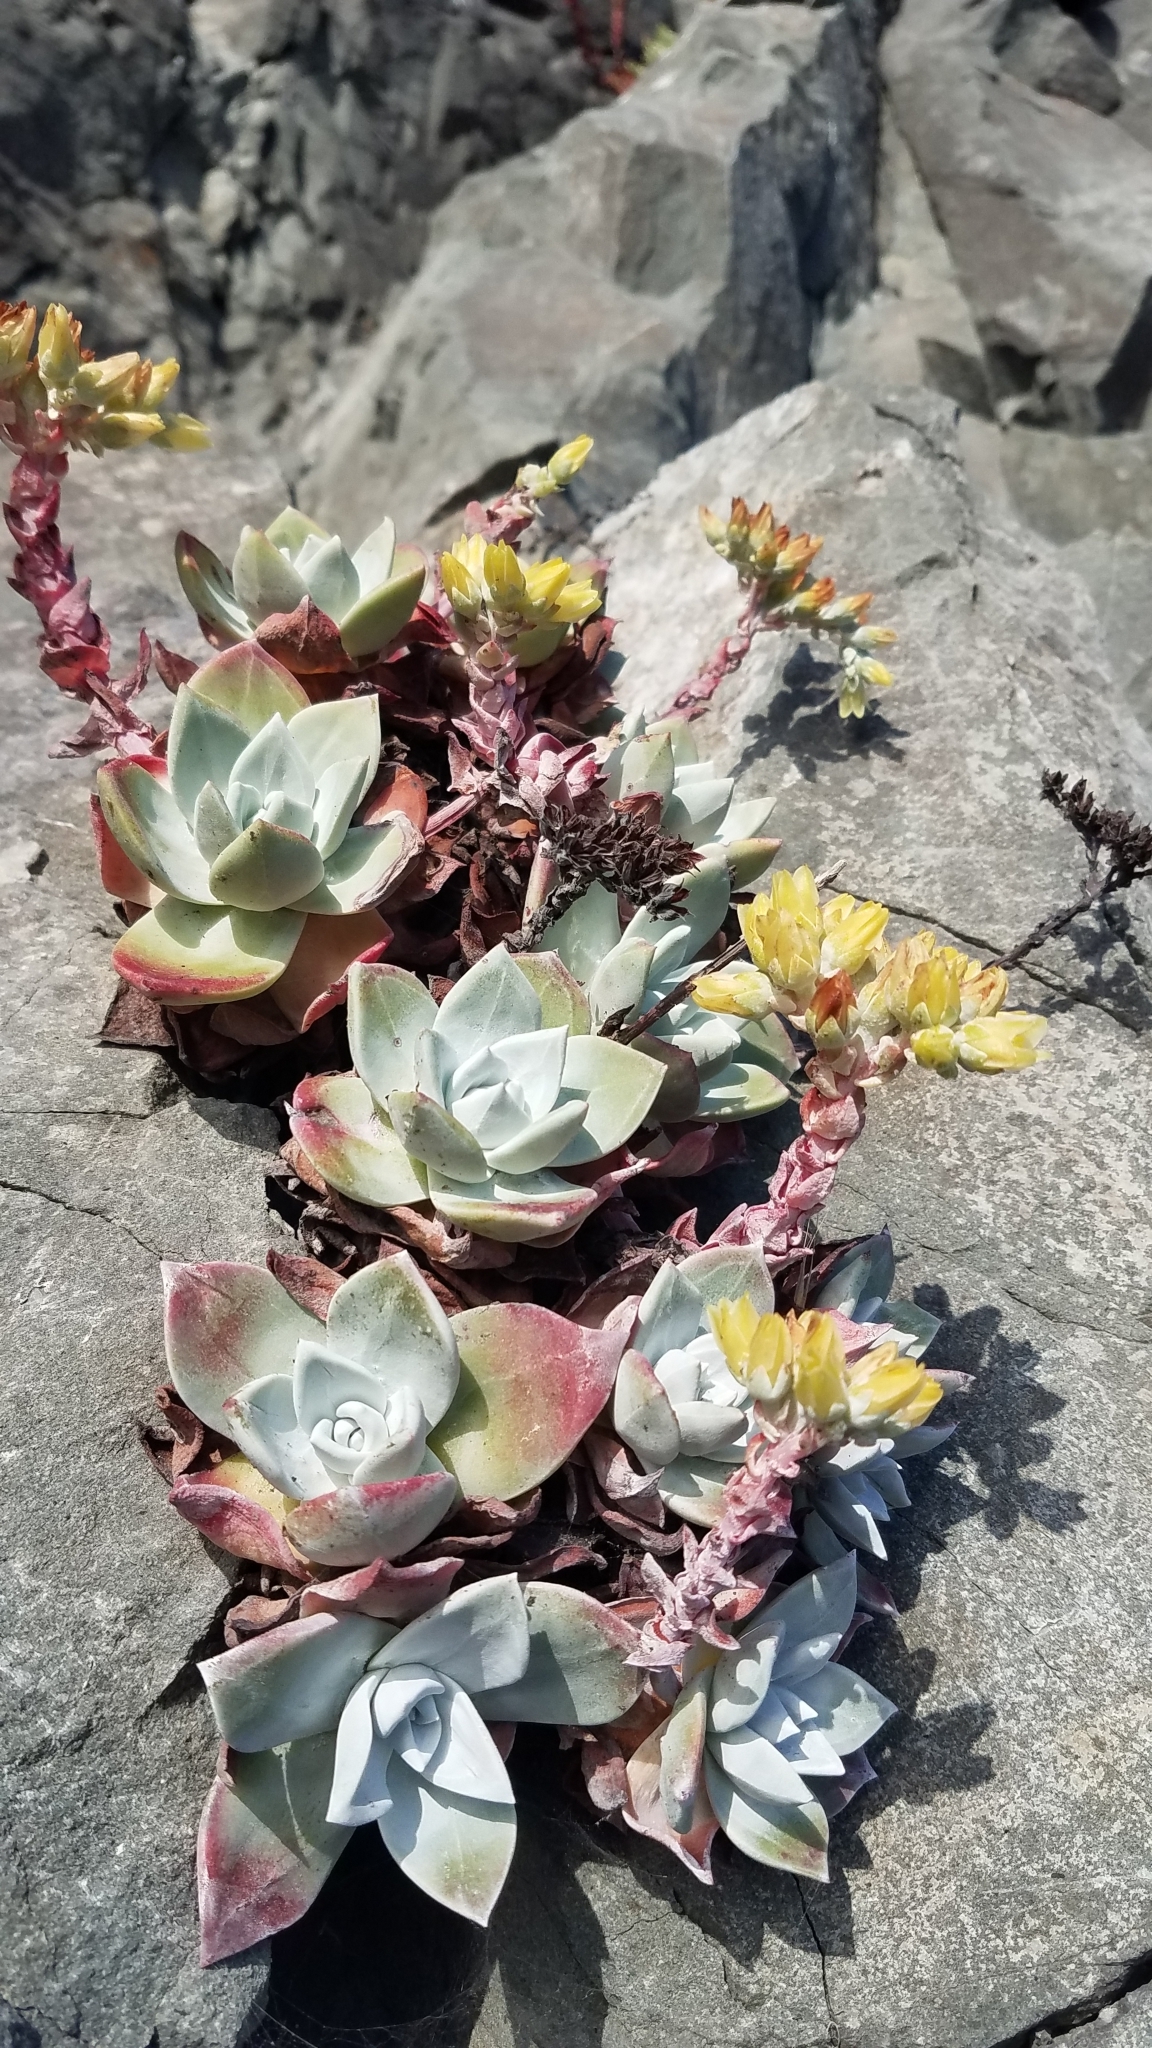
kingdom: Plantae
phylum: Tracheophyta
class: Magnoliopsida
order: Saxifragales
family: Crassulaceae
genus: Dudleya
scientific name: Dudleya farinosa
